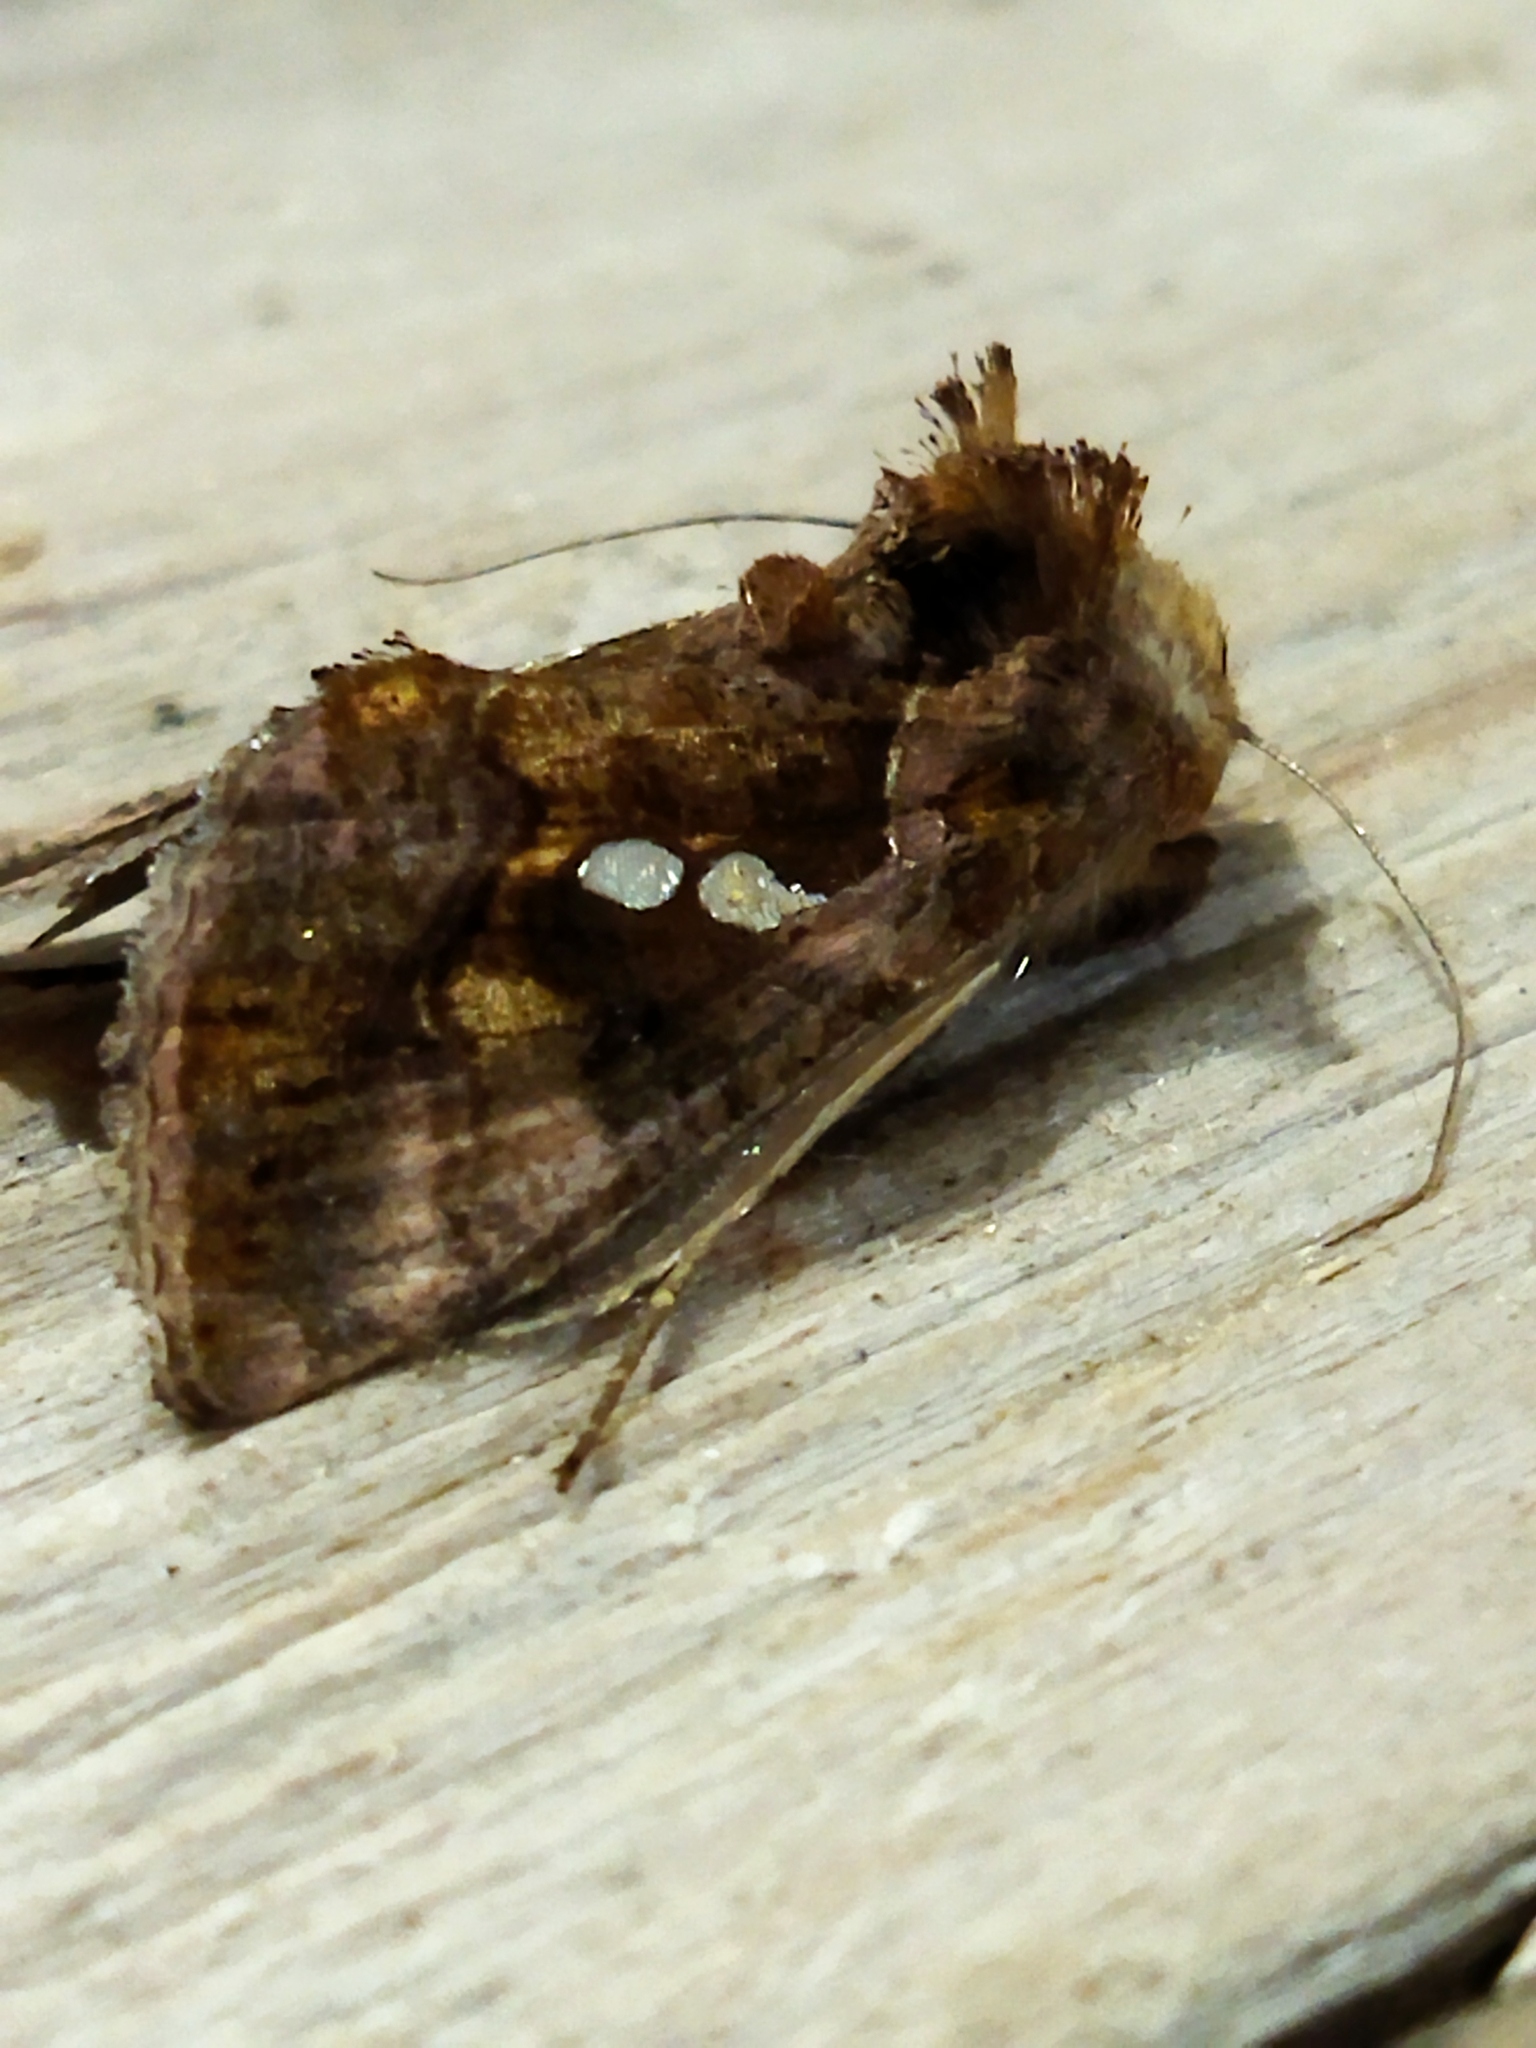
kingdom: Animalia
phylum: Arthropoda
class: Insecta
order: Lepidoptera
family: Noctuidae
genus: Chrysodeixis
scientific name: Chrysodeixis chalcites
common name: Golden twin-spot
